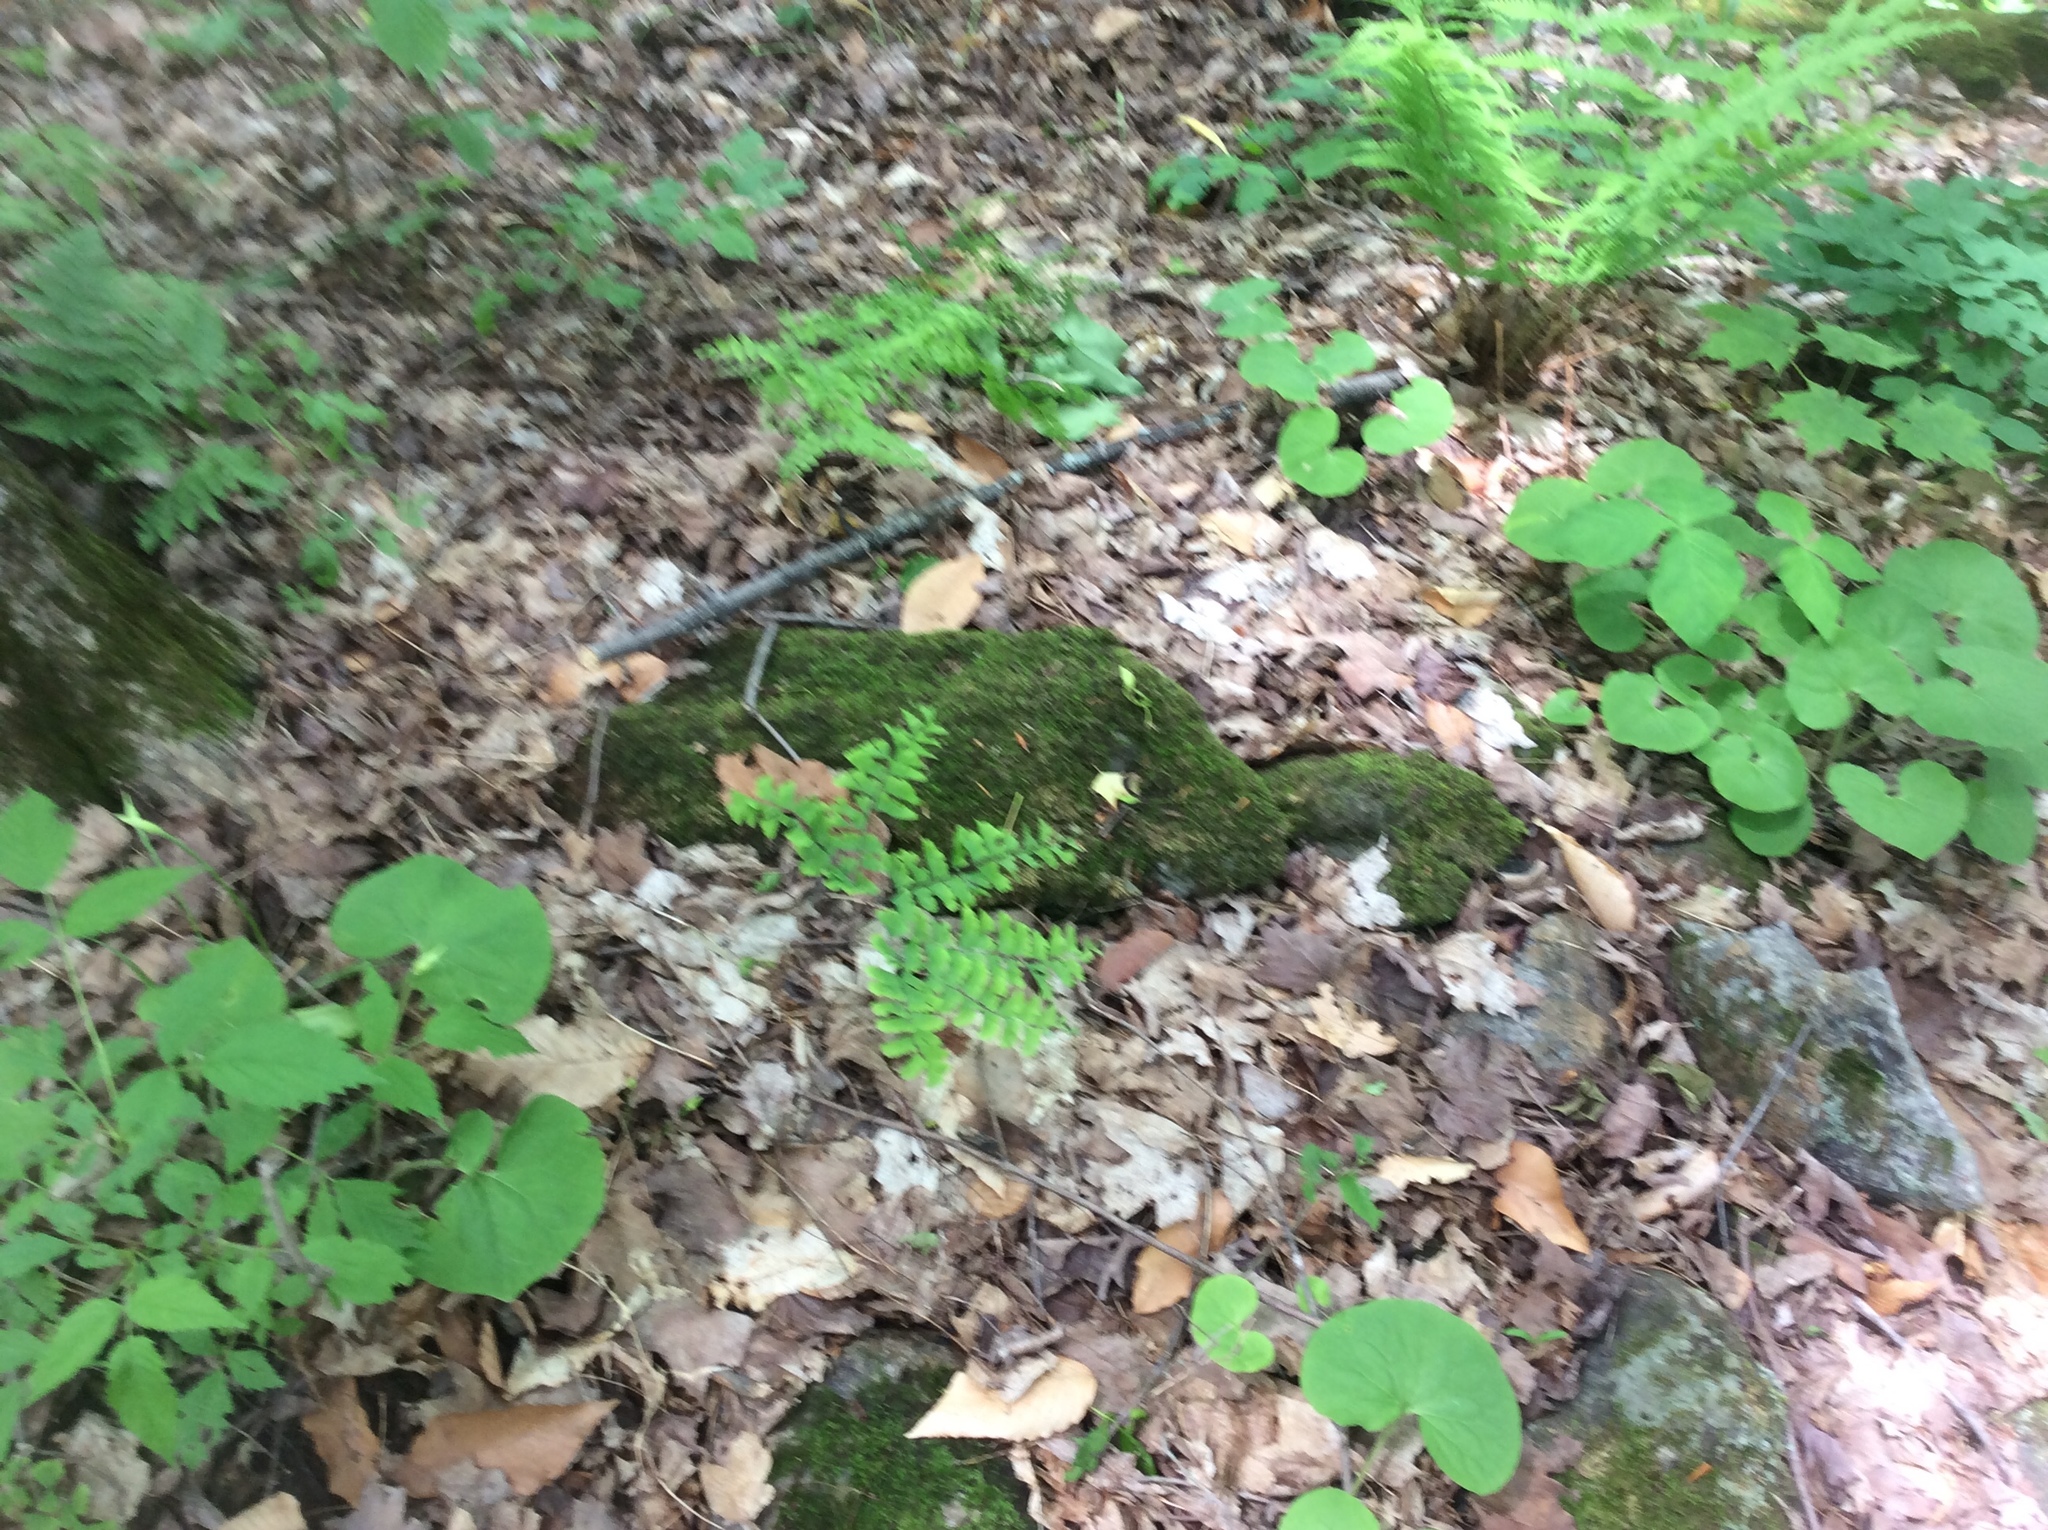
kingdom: Plantae
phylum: Tracheophyta
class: Polypodiopsida
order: Polypodiales
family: Pteridaceae
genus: Adiantum
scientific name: Adiantum pedatum
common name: Five-finger fern
